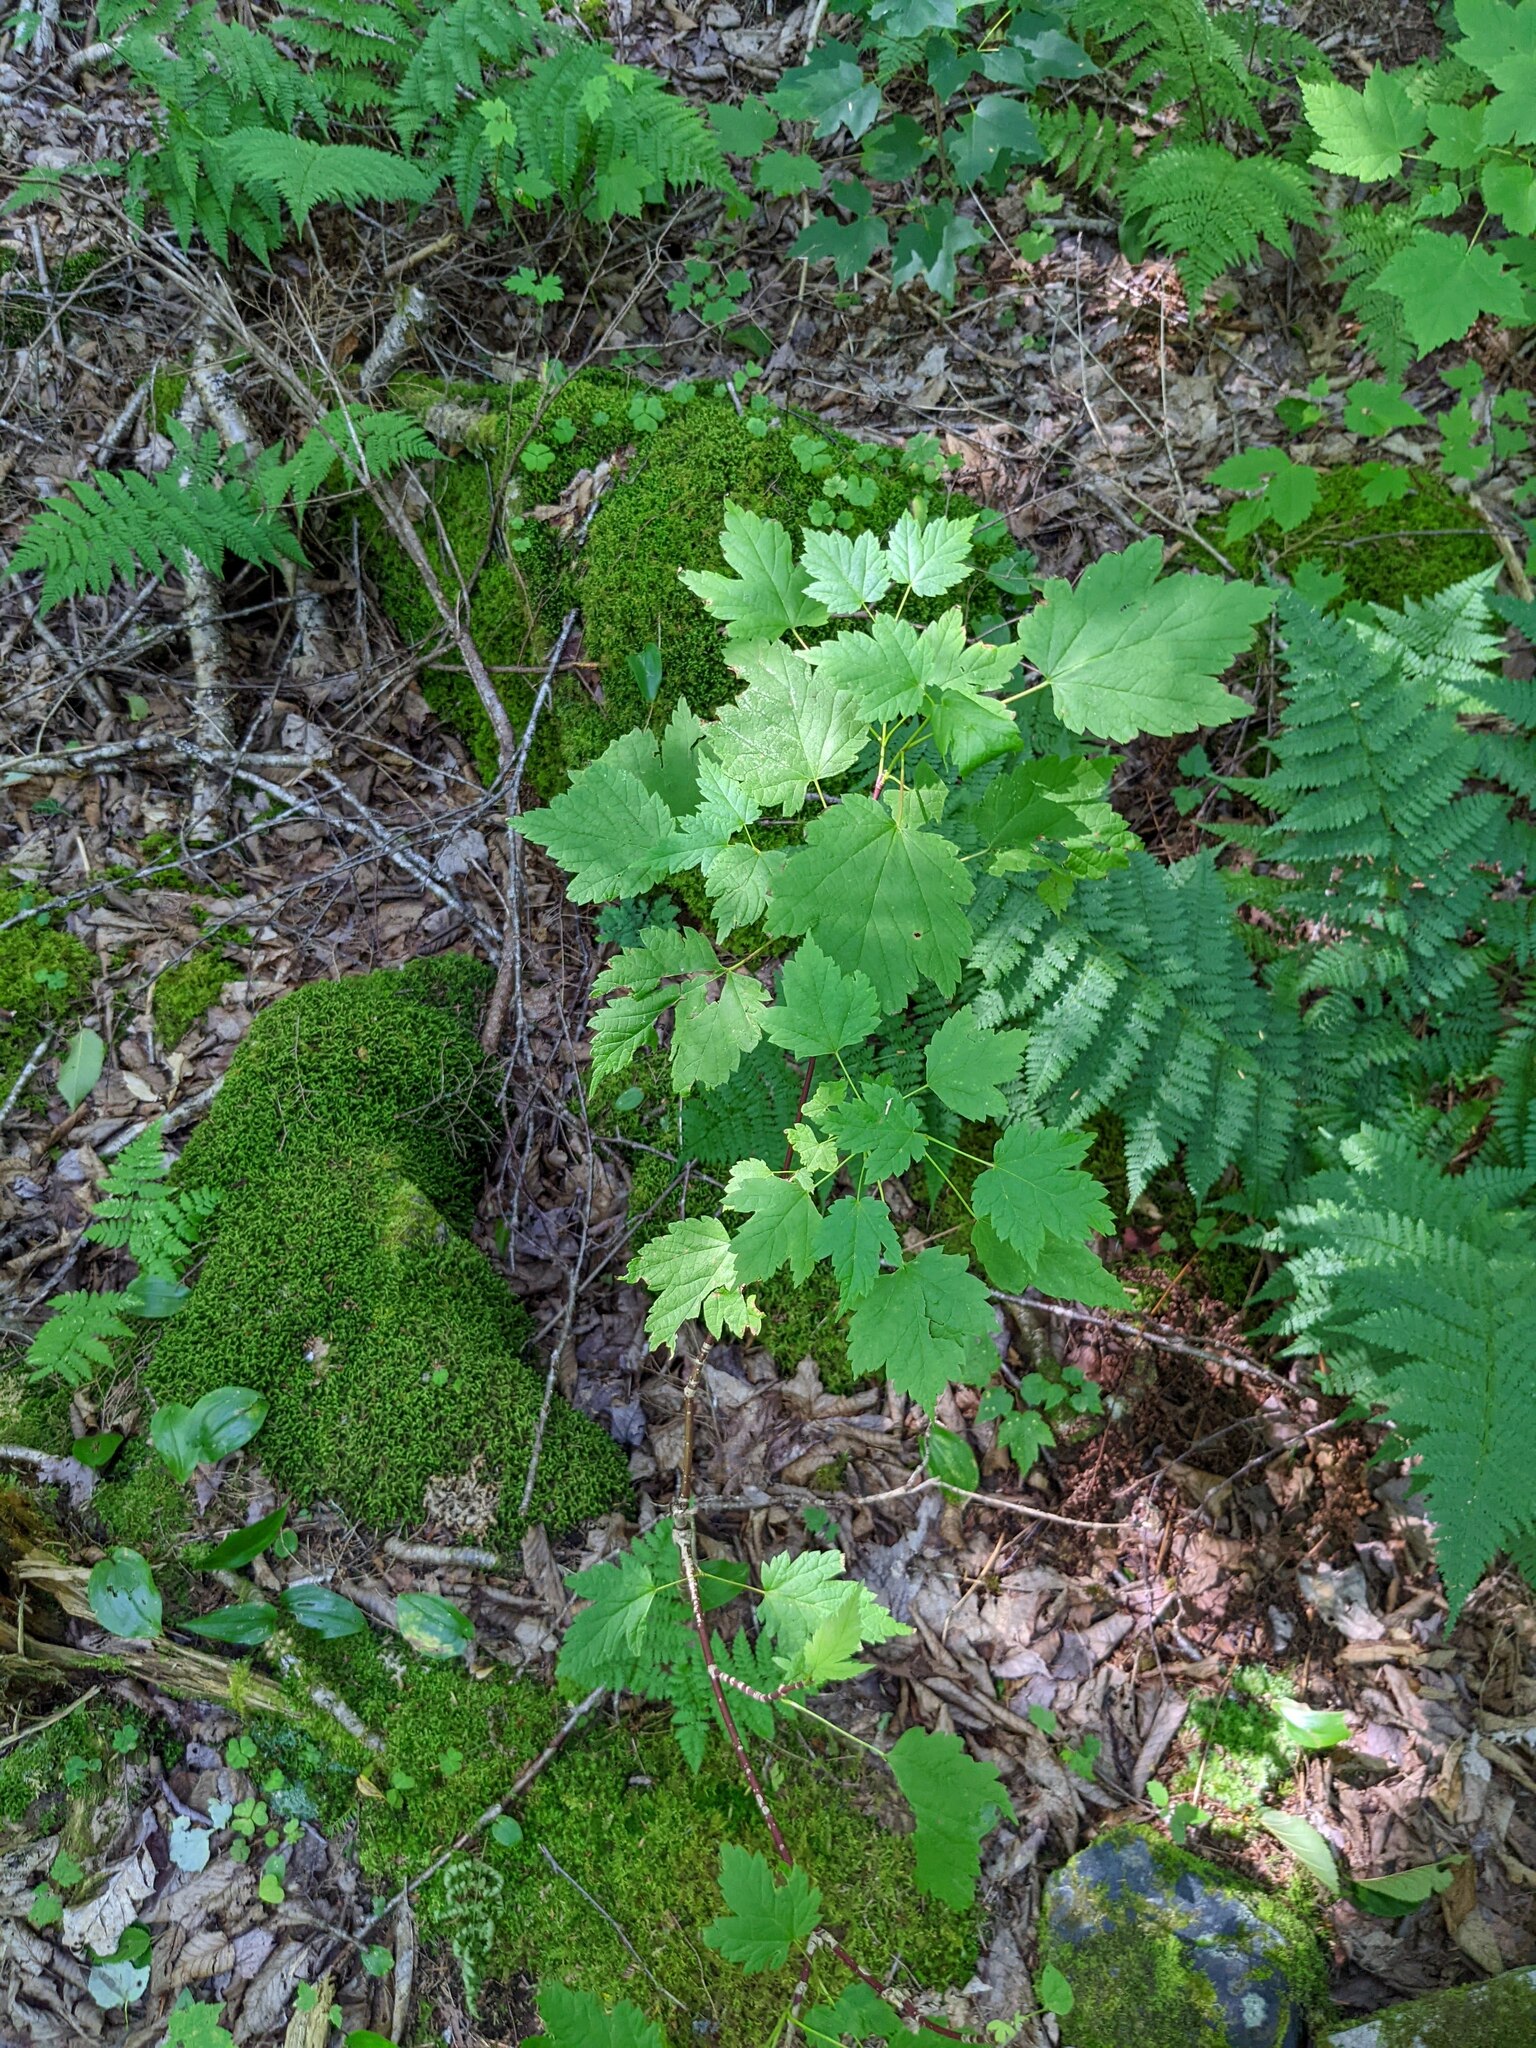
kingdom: Plantae
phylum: Tracheophyta
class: Magnoliopsida
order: Sapindales
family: Sapindaceae
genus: Acer
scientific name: Acer spicatum
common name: Mountain maple
